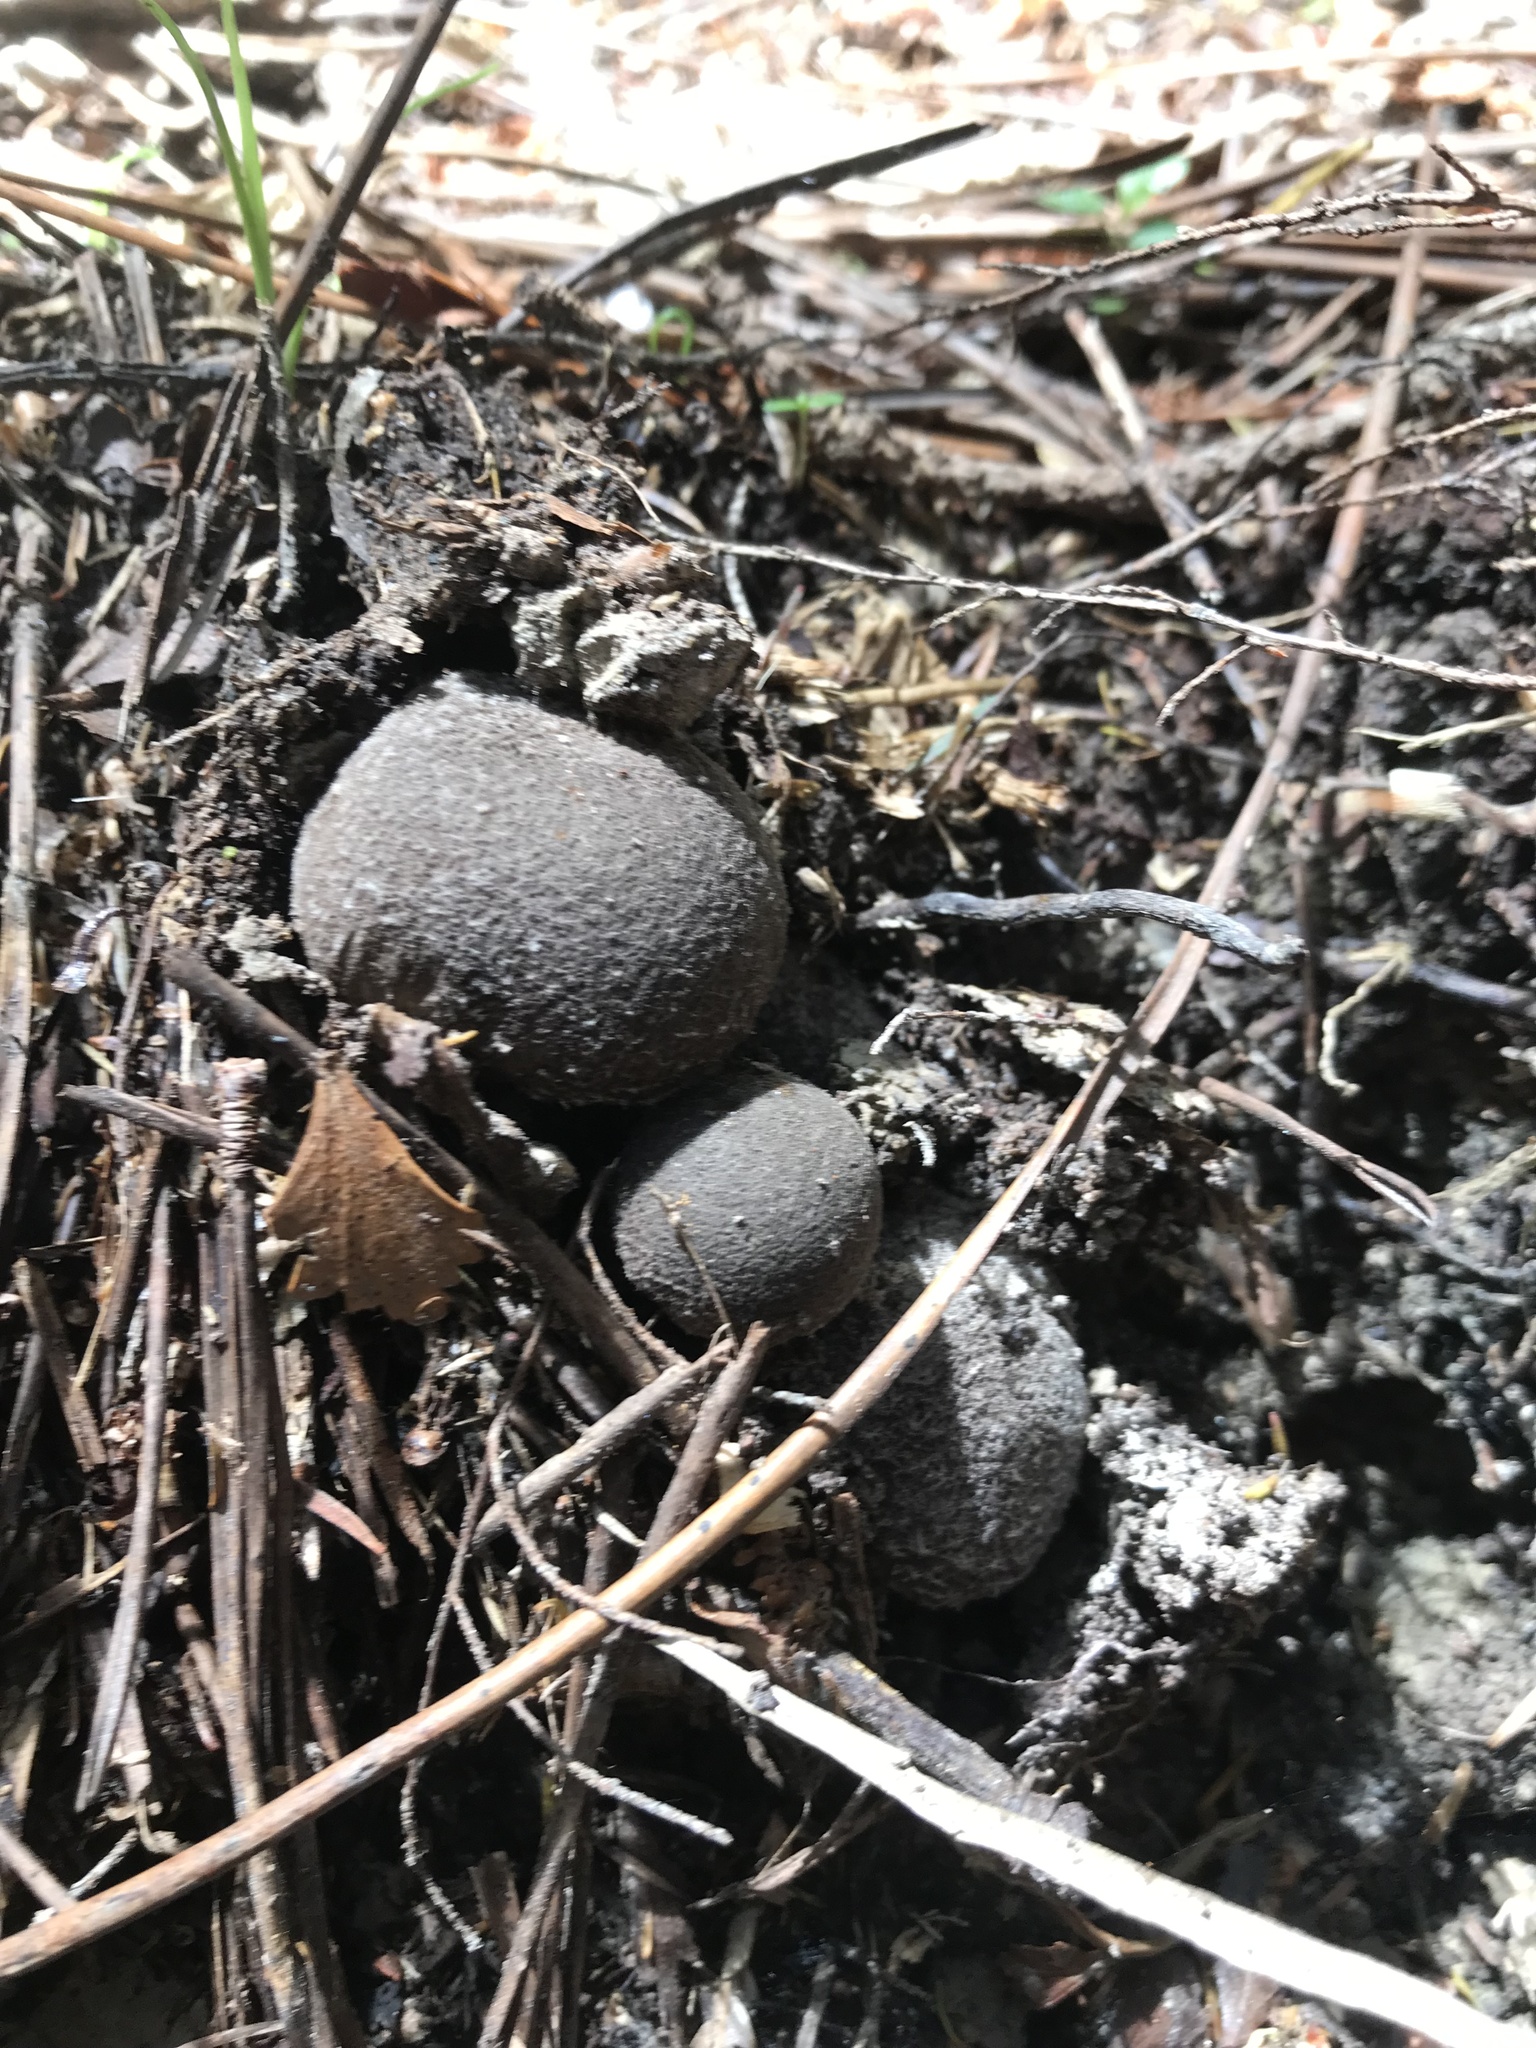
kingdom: Fungi
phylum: Basidiomycota
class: Agaricomycetes
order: Agaricales
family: Amanitaceae
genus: Amanita
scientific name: Amanita nehuta
